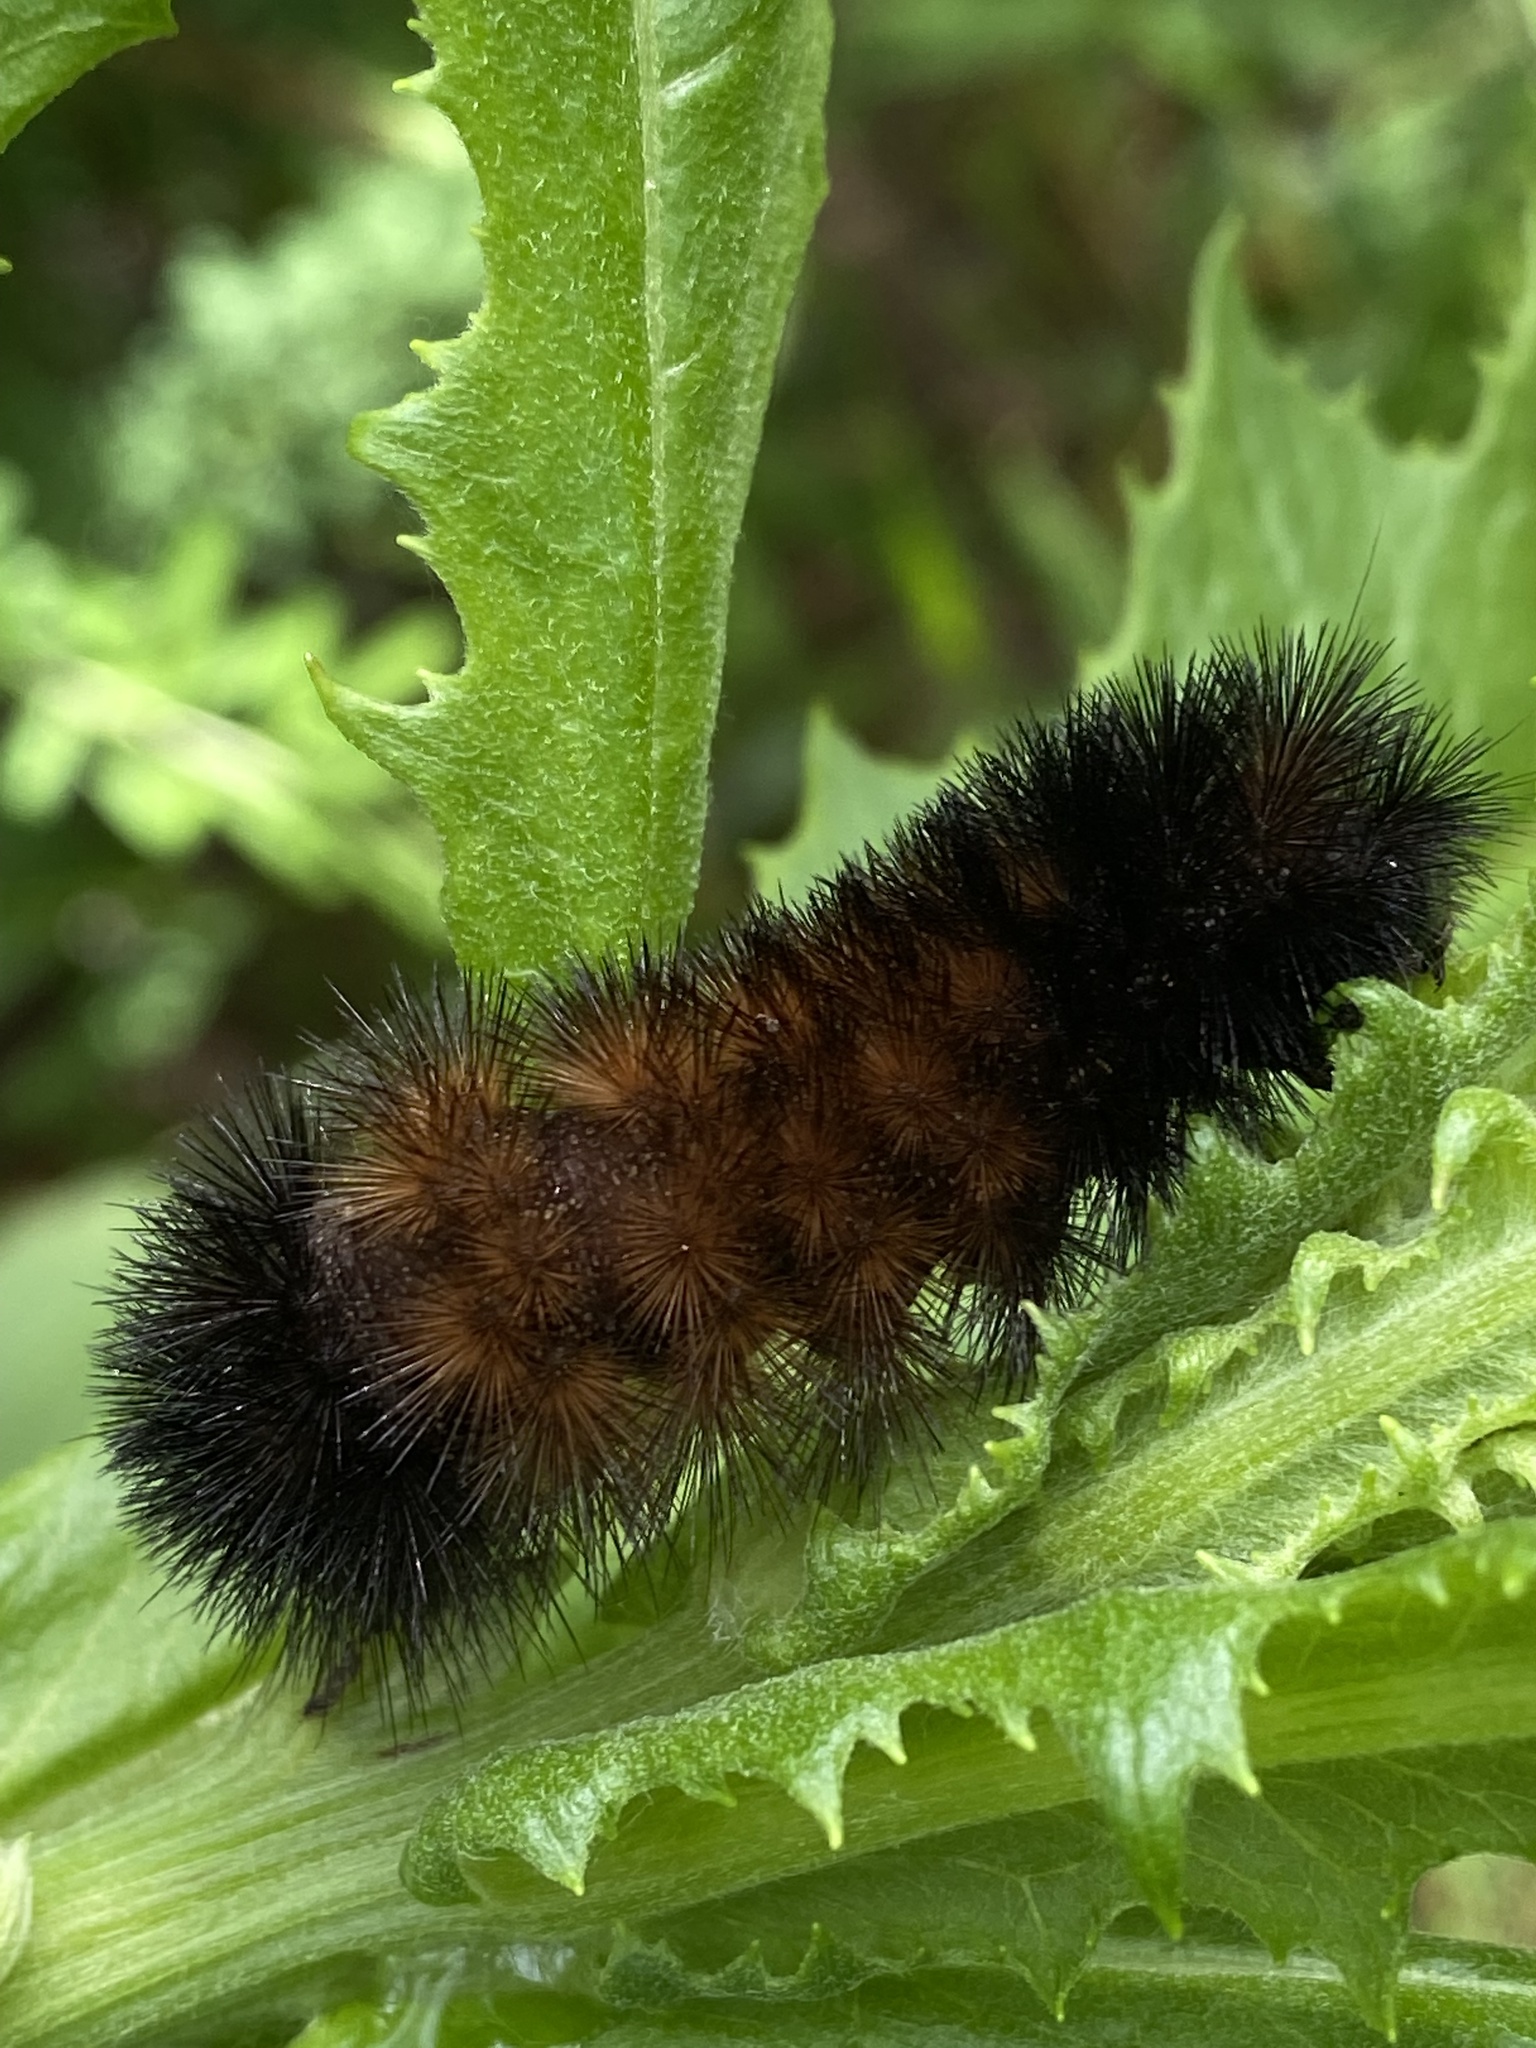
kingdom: Animalia
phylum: Arthropoda
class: Insecta
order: Lepidoptera
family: Erebidae
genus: Pyrrharctia
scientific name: Pyrrharctia isabella
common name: Isabella tiger moth
